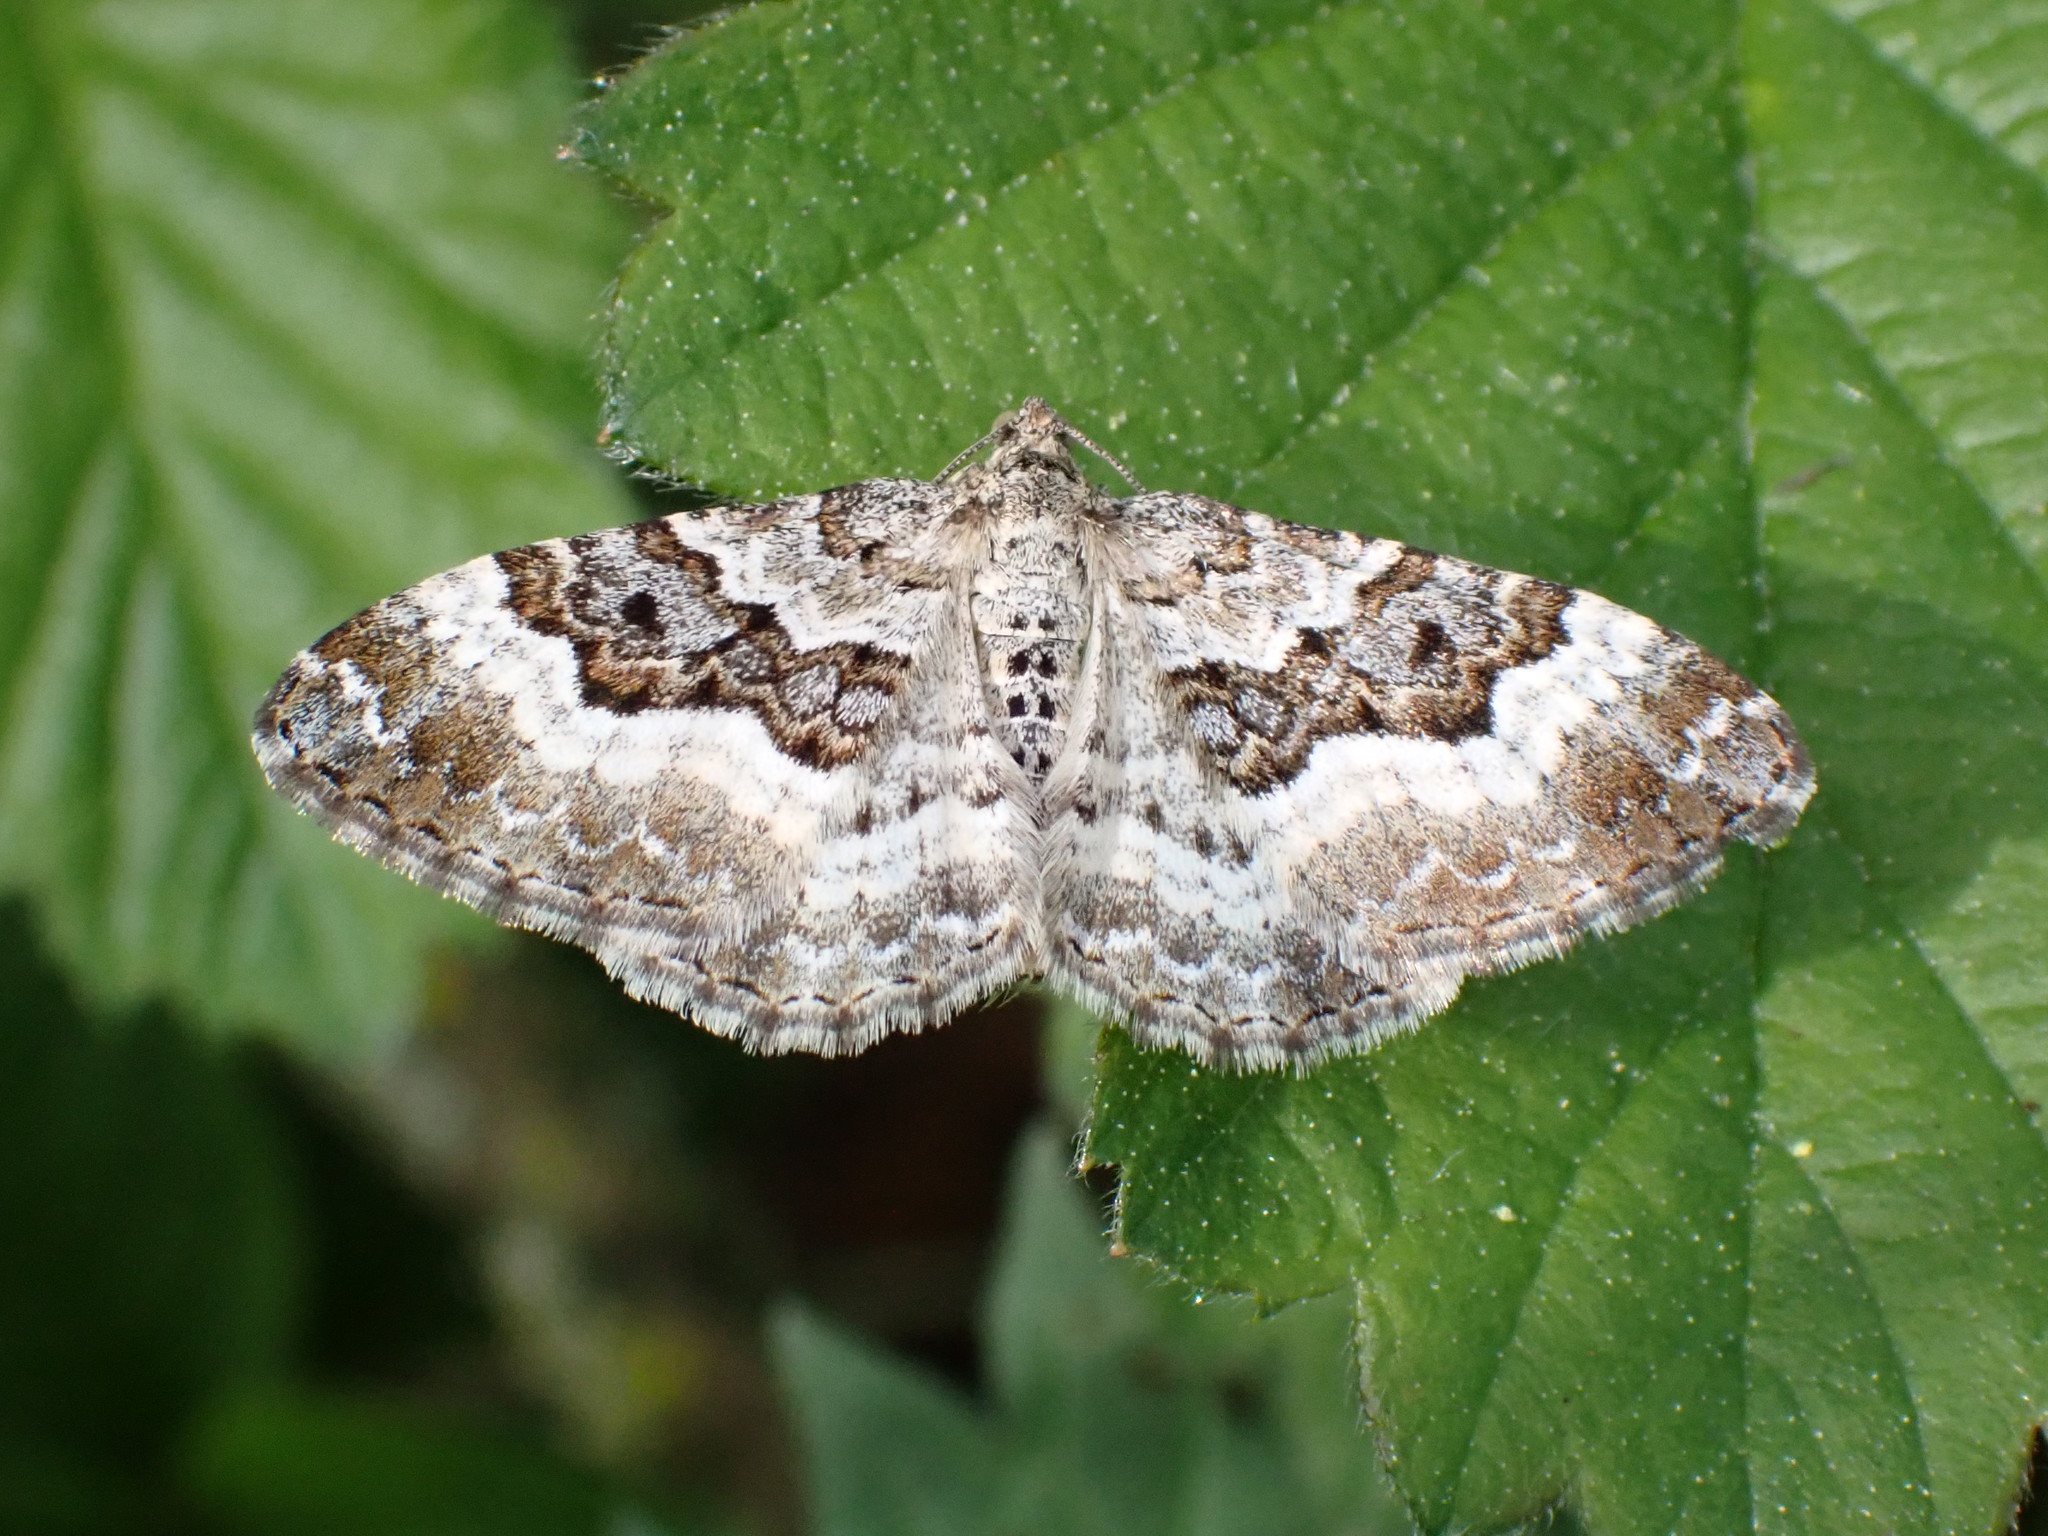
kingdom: Animalia
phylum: Arthropoda
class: Insecta
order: Lepidoptera
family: Geometridae
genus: Epirrhoe
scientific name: Epirrhoe alternata
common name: Common carpet
